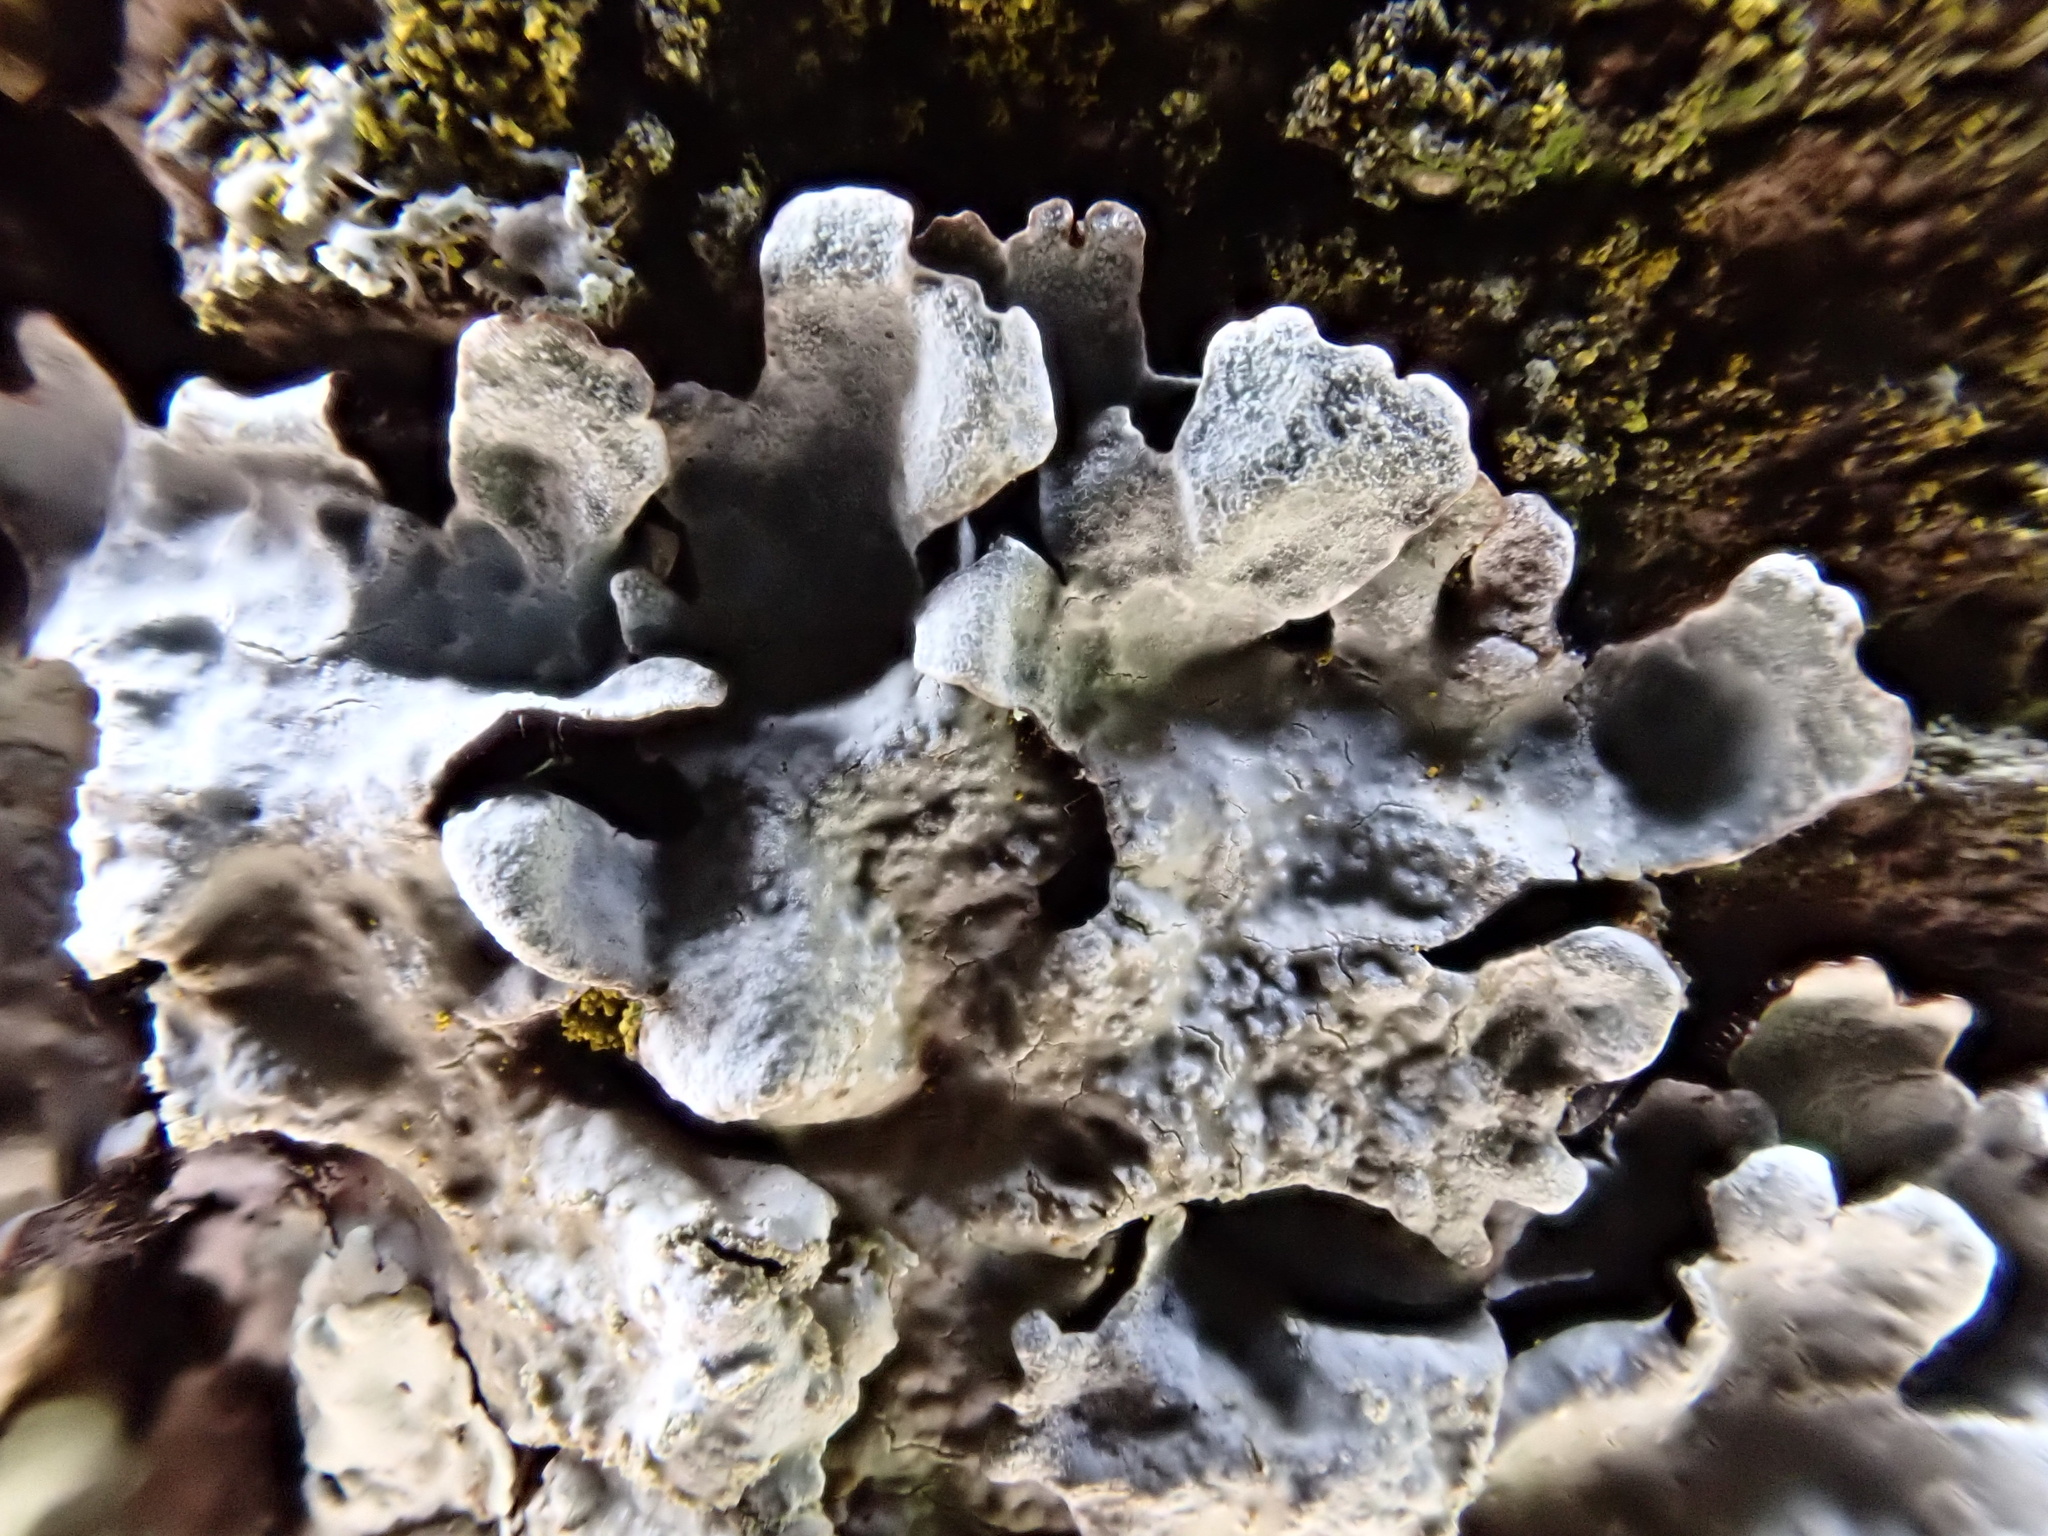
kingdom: Fungi
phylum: Ascomycota
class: Lecanoromycetes
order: Lecanorales
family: Parmeliaceae
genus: Parmelia
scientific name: Parmelia sulcata
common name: Netted shield lichen
